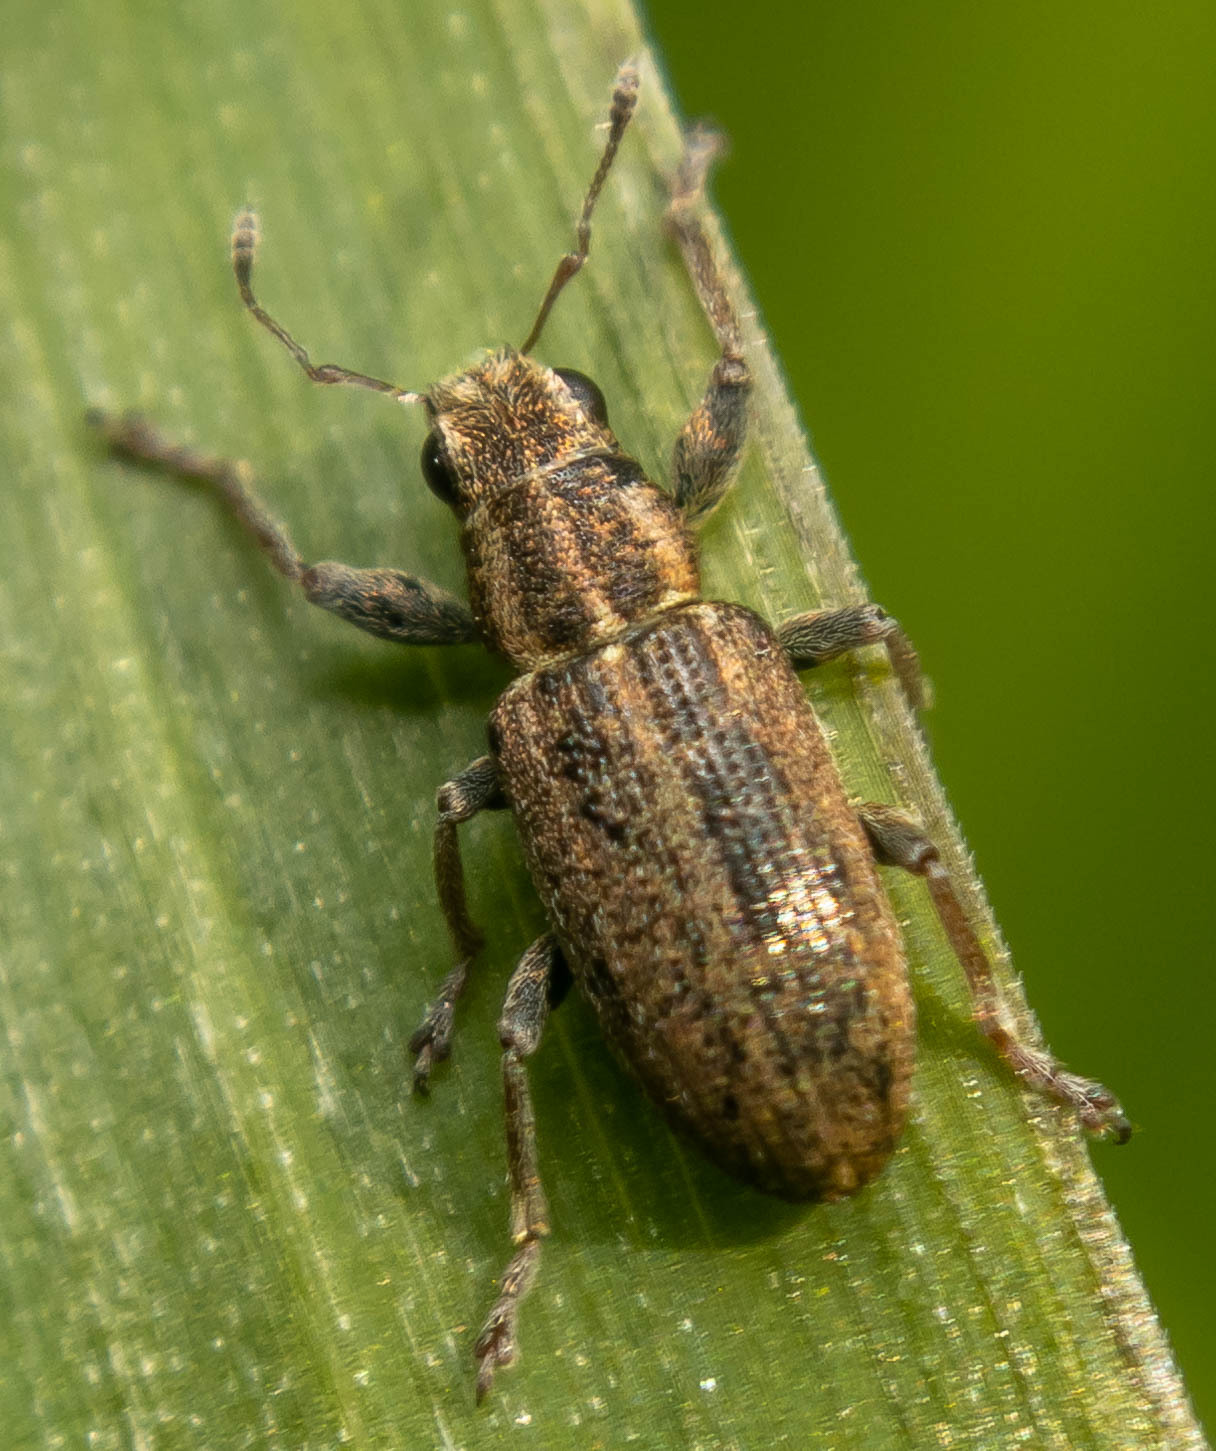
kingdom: Animalia
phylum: Arthropoda
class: Insecta
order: Coleoptera
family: Curculionidae
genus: Sitona
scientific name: Sitona lineatus
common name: Weevil
